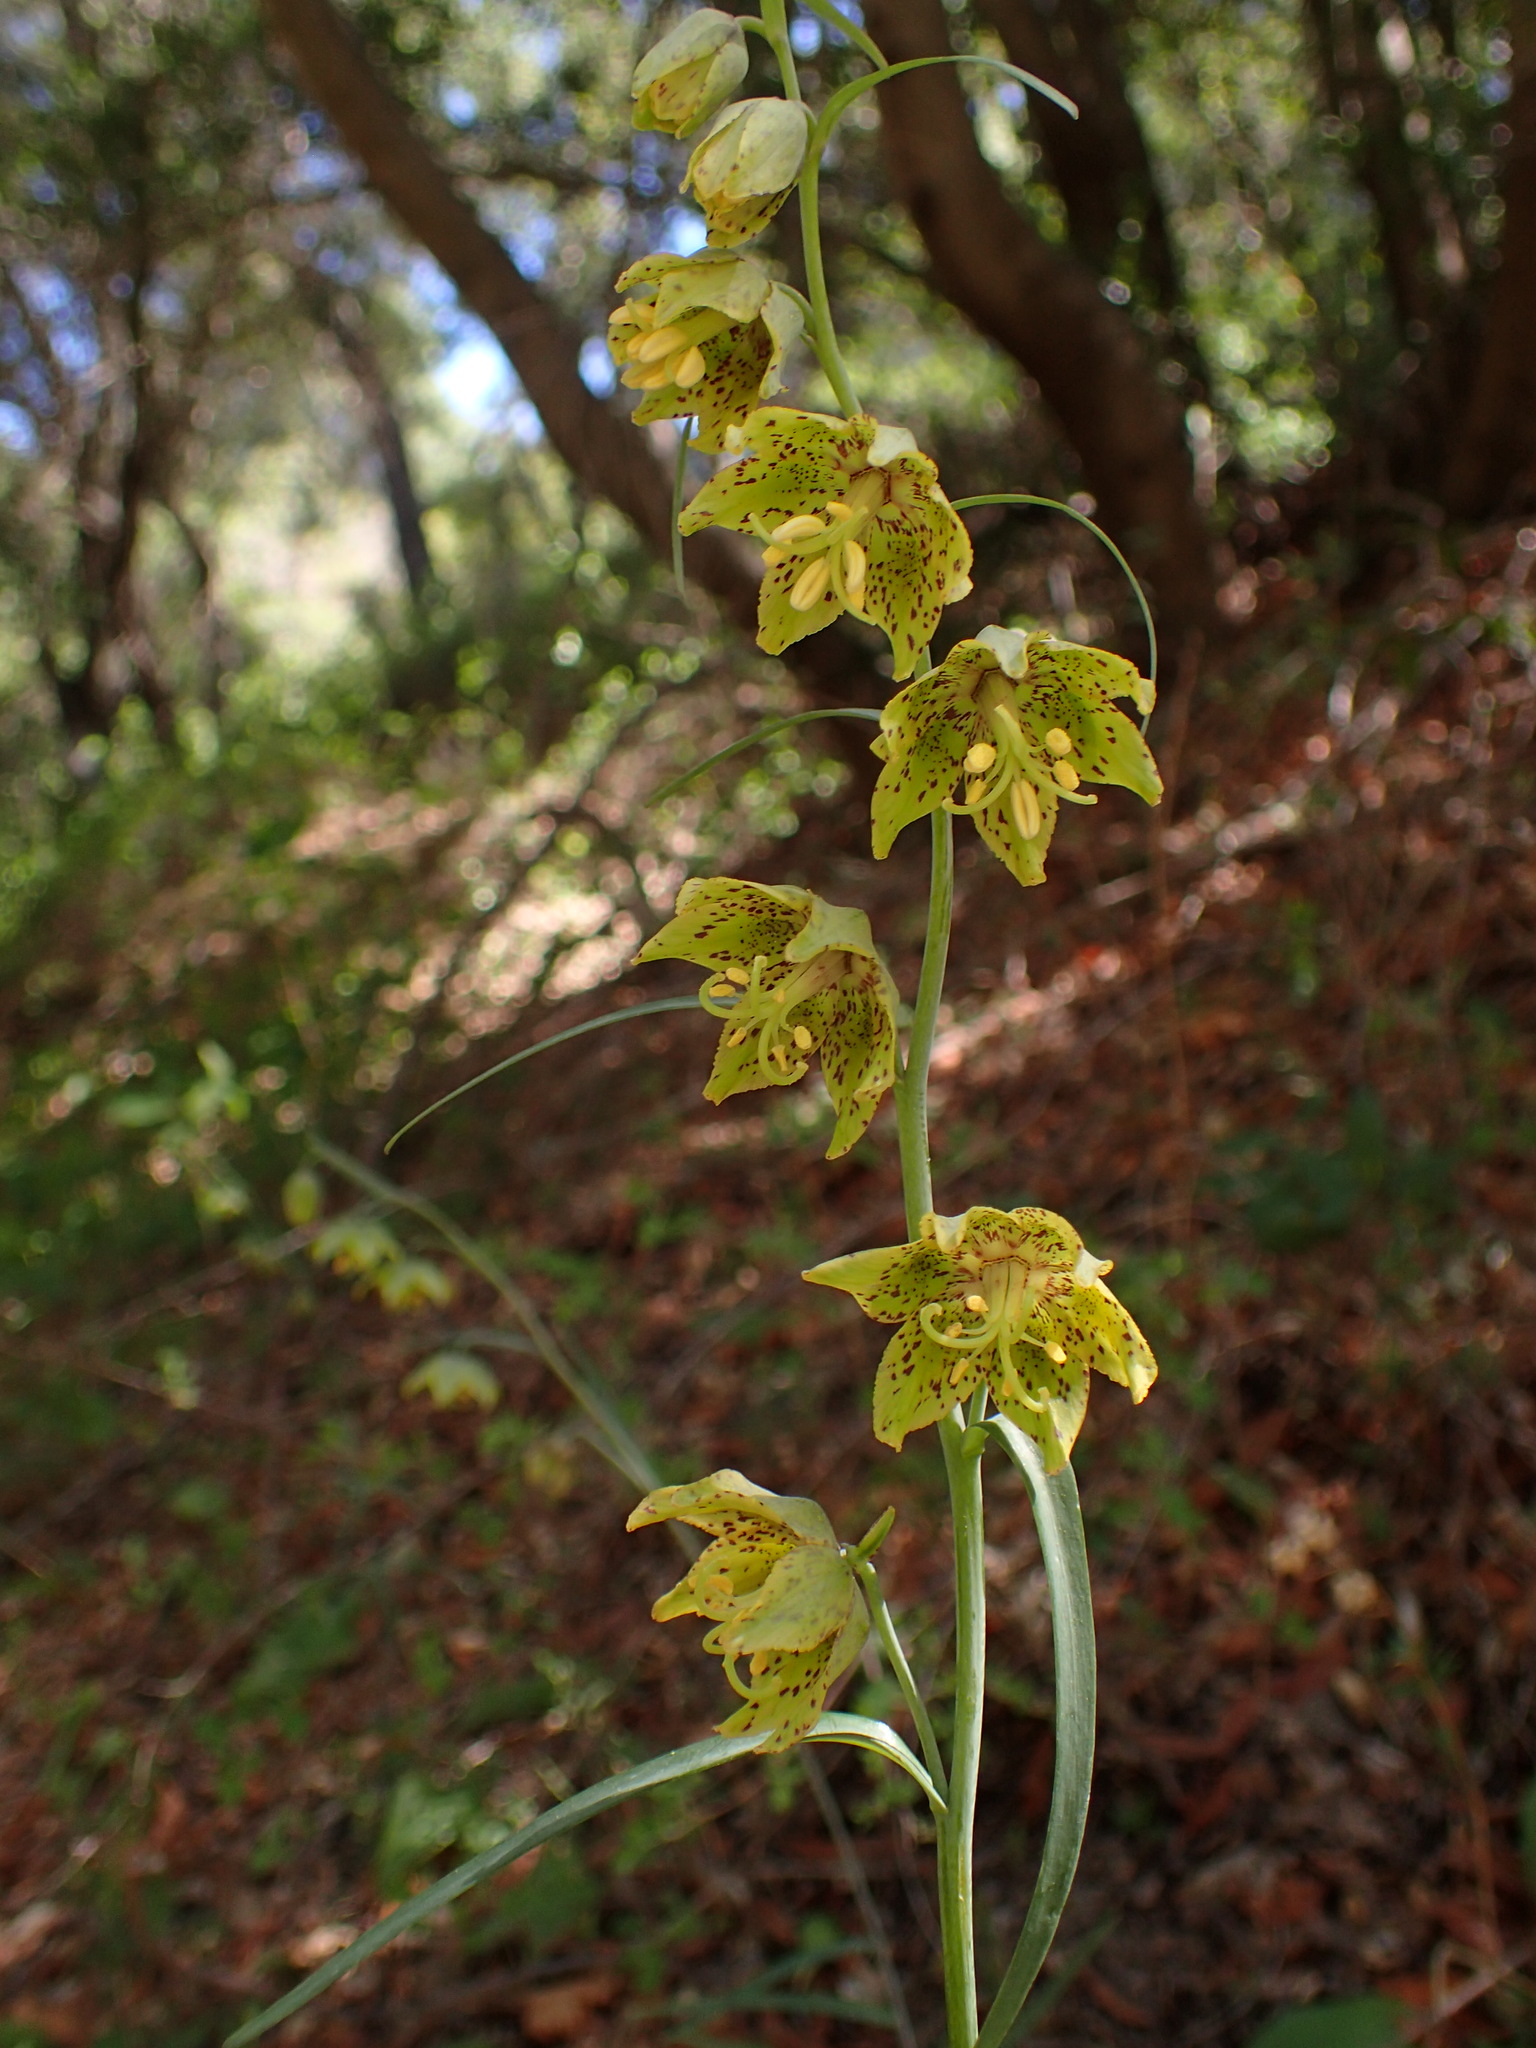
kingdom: Plantae
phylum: Tracheophyta
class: Liliopsida
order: Liliales
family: Liliaceae
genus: Fritillaria
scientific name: Fritillaria ojaiensis
